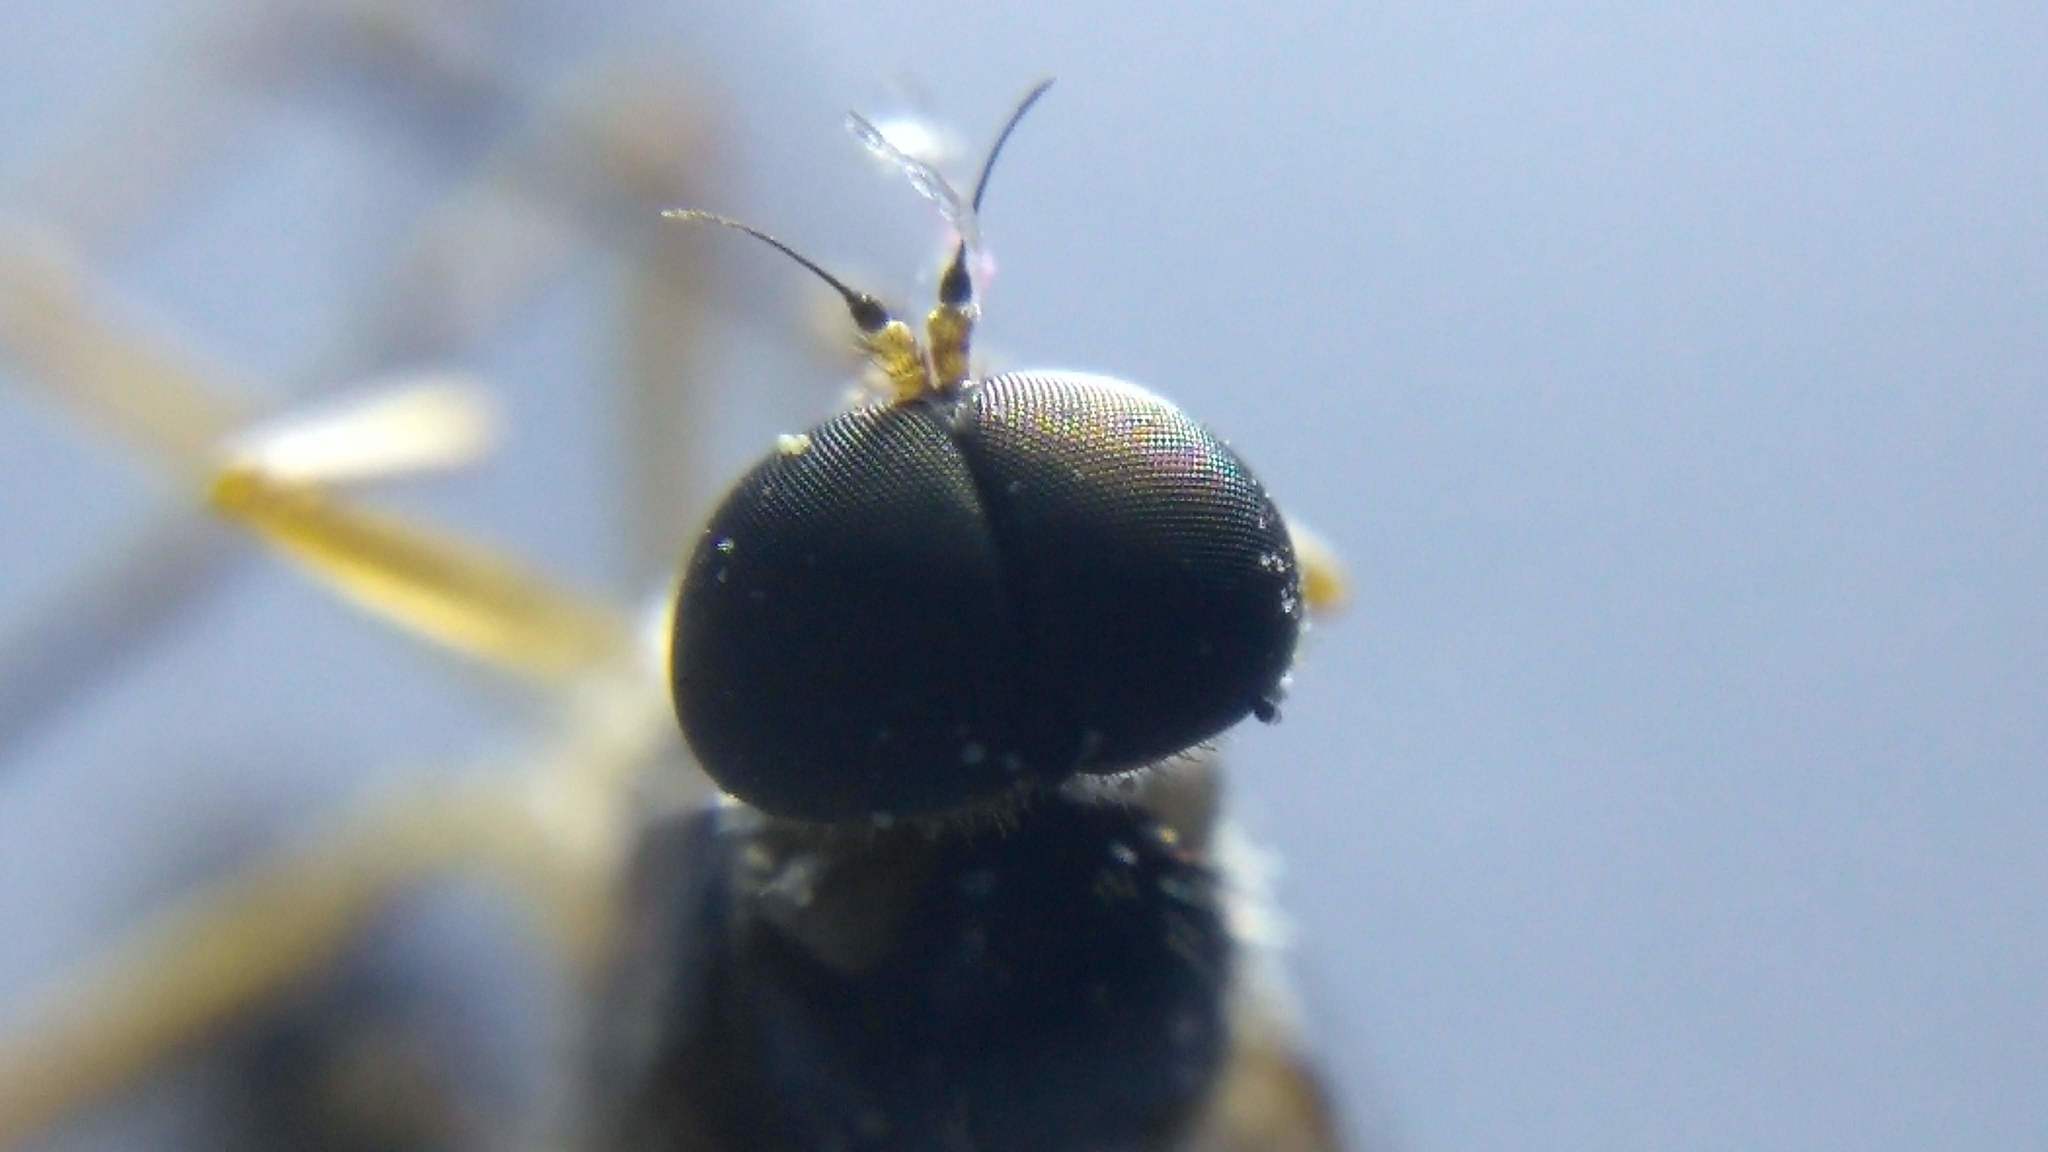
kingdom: Animalia
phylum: Arthropoda
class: Insecta
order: Diptera
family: Xylophagidae
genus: Dialysis
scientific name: Dialysis elongata
